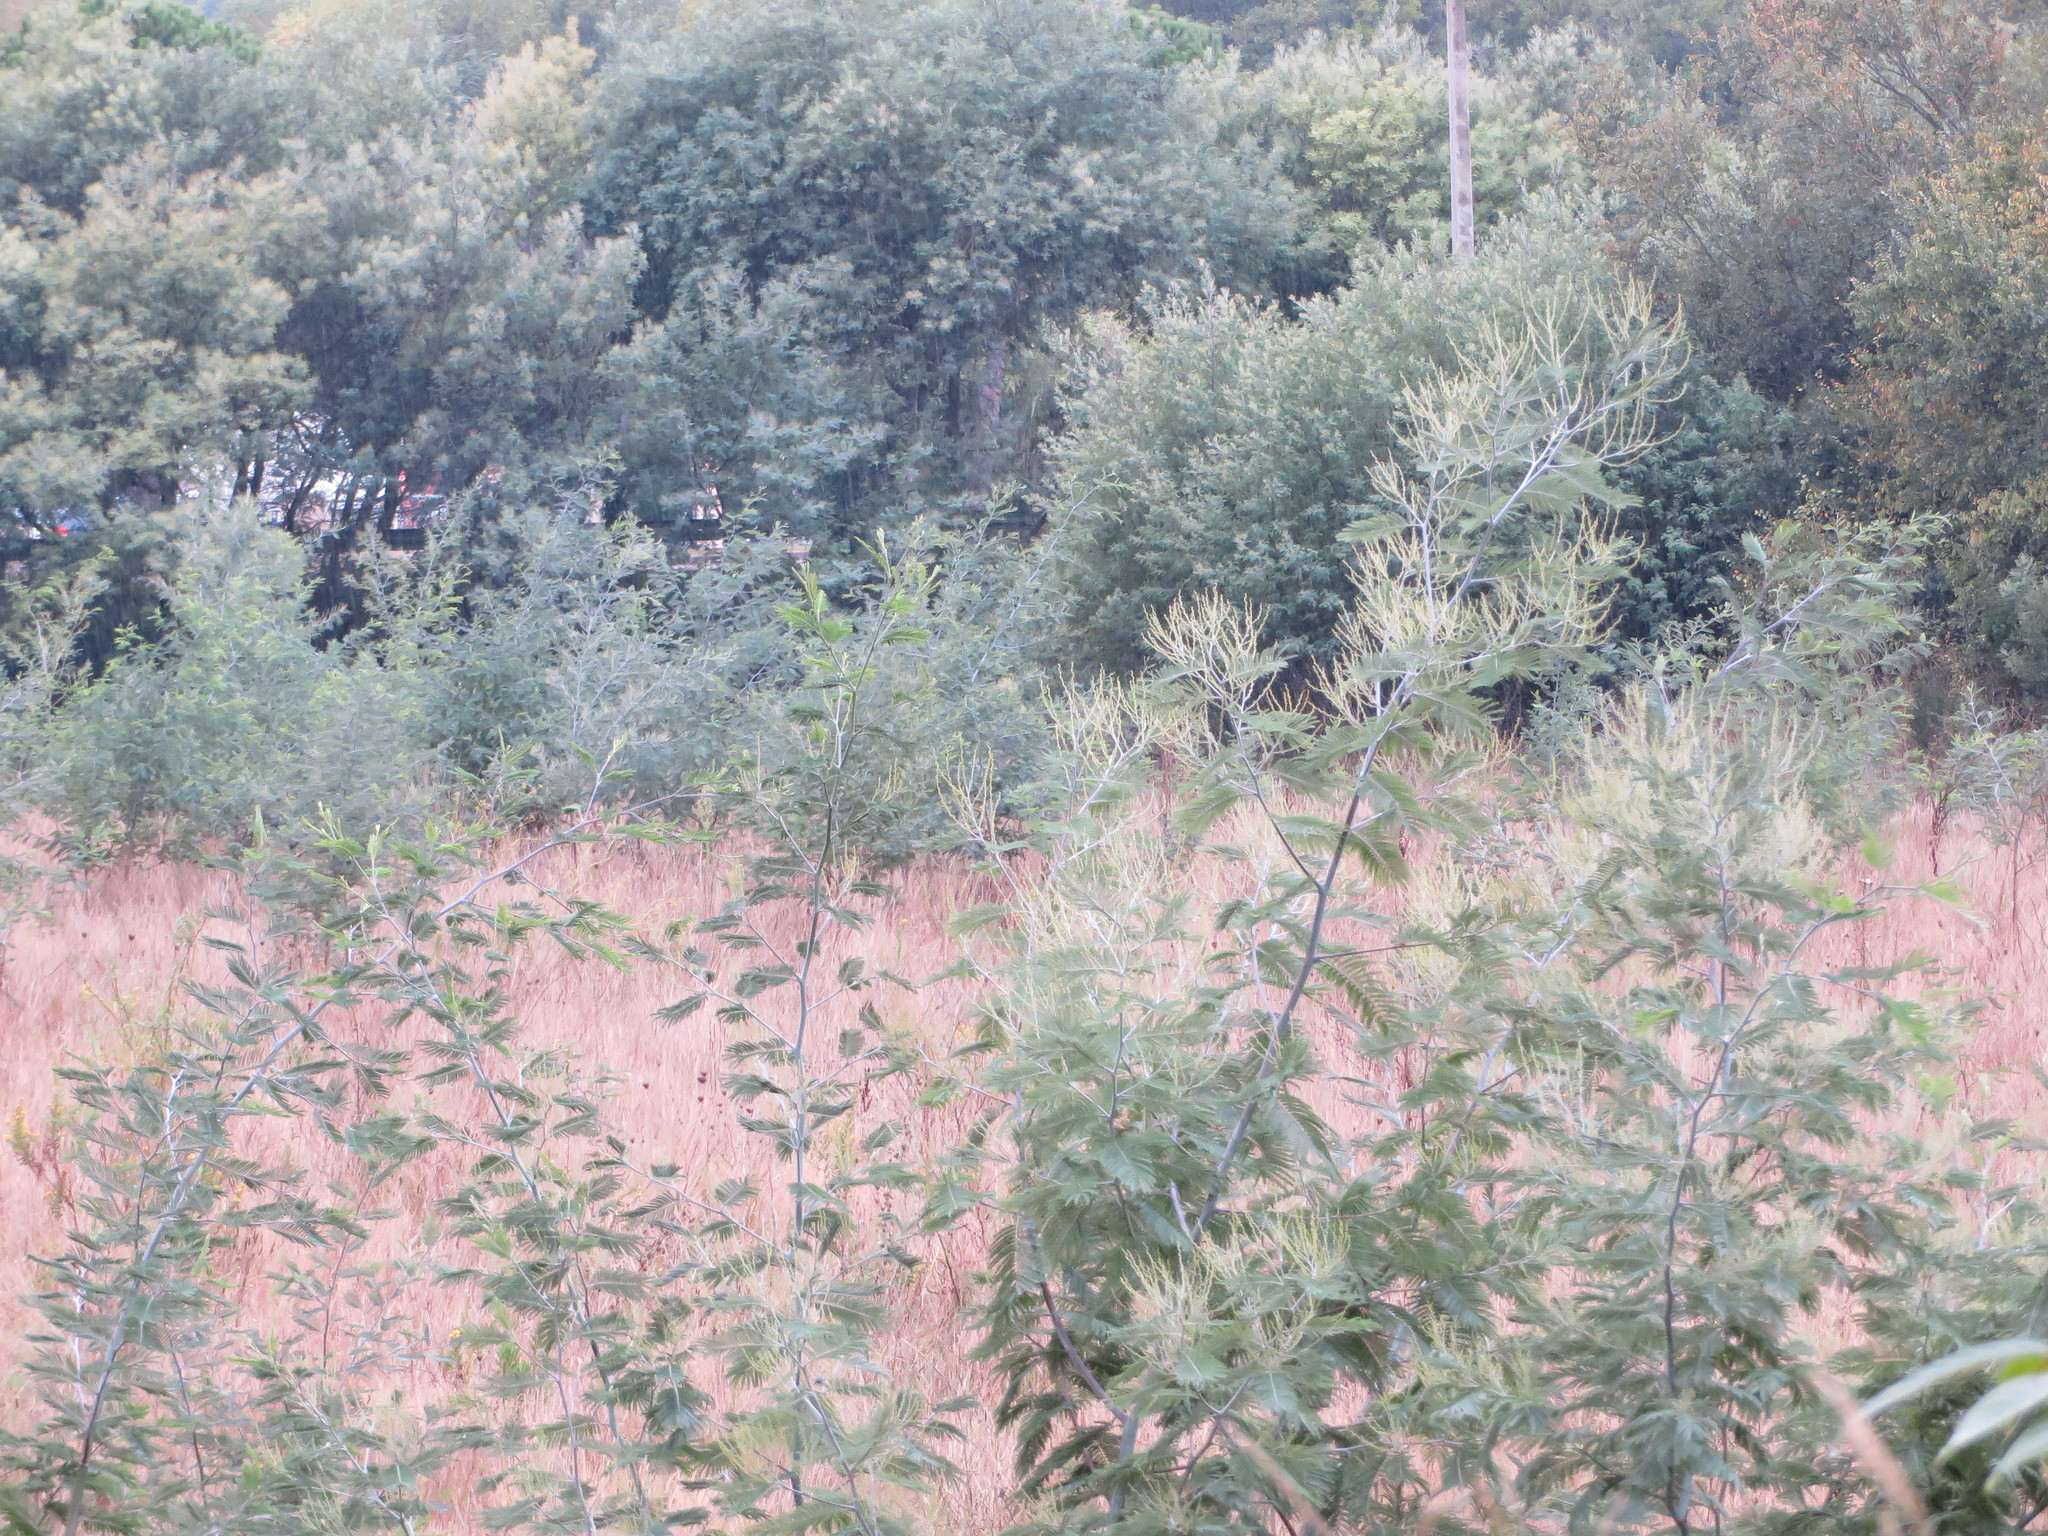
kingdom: Plantae
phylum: Tracheophyta
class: Magnoliopsida
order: Fabales
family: Fabaceae
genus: Acacia
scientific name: Acacia dealbata
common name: Silver wattle
